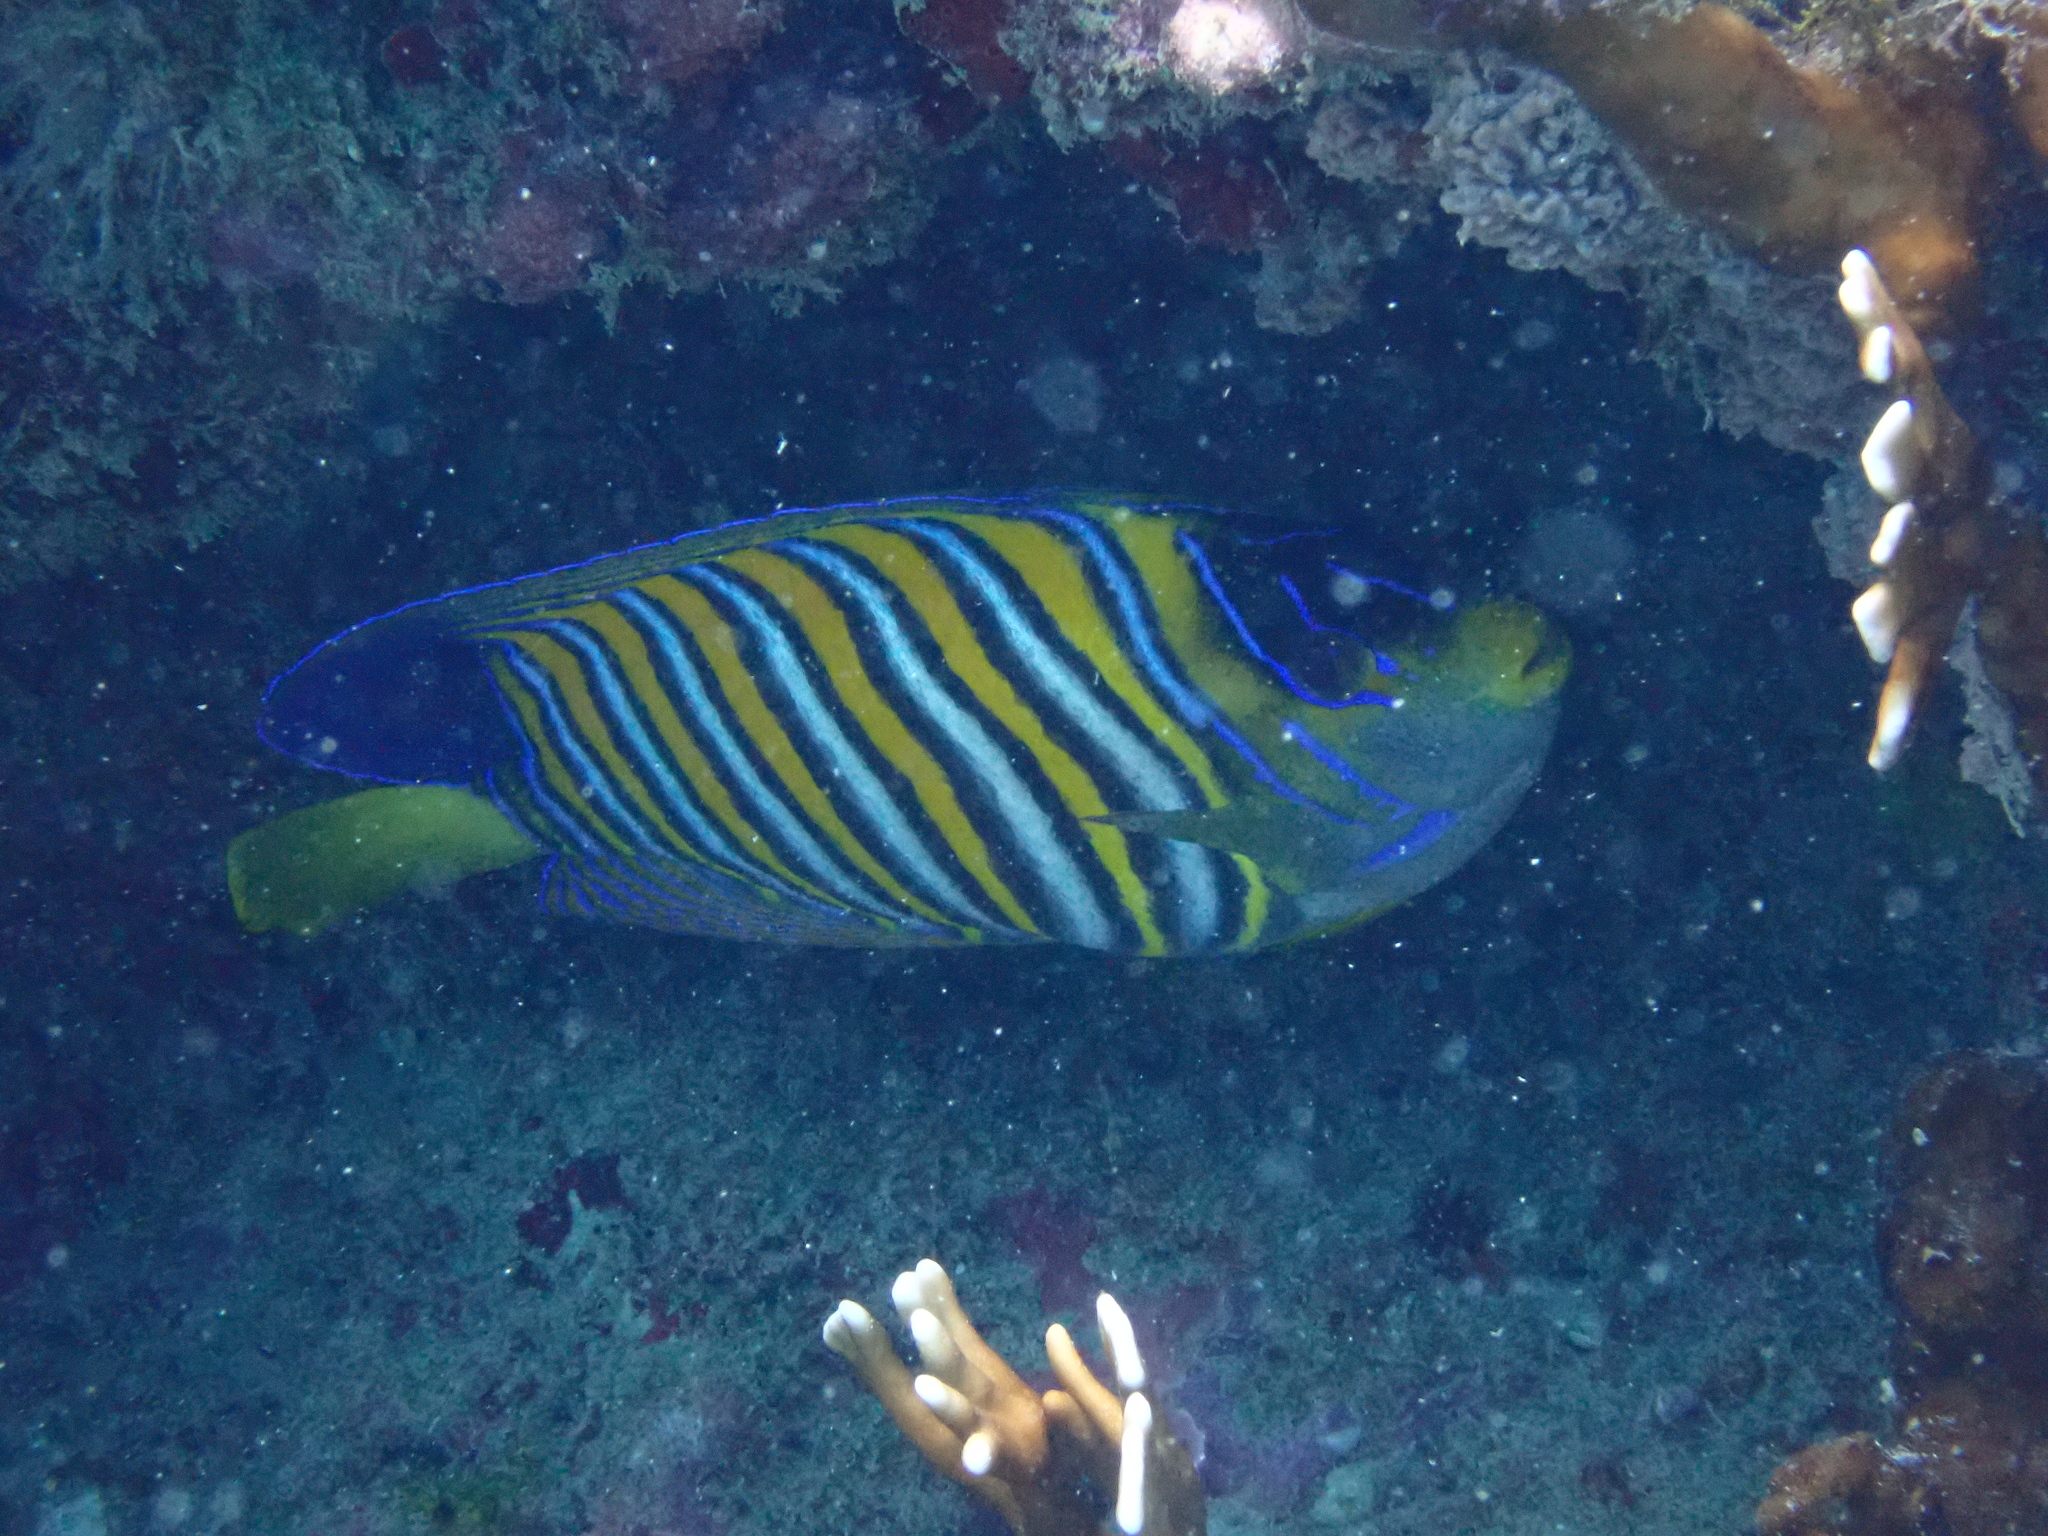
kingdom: Animalia
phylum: Chordata
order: Perciformes
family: Pomacanthidae
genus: Pygoplites
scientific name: Pygoplites diacanthus
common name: Regal angelfish
